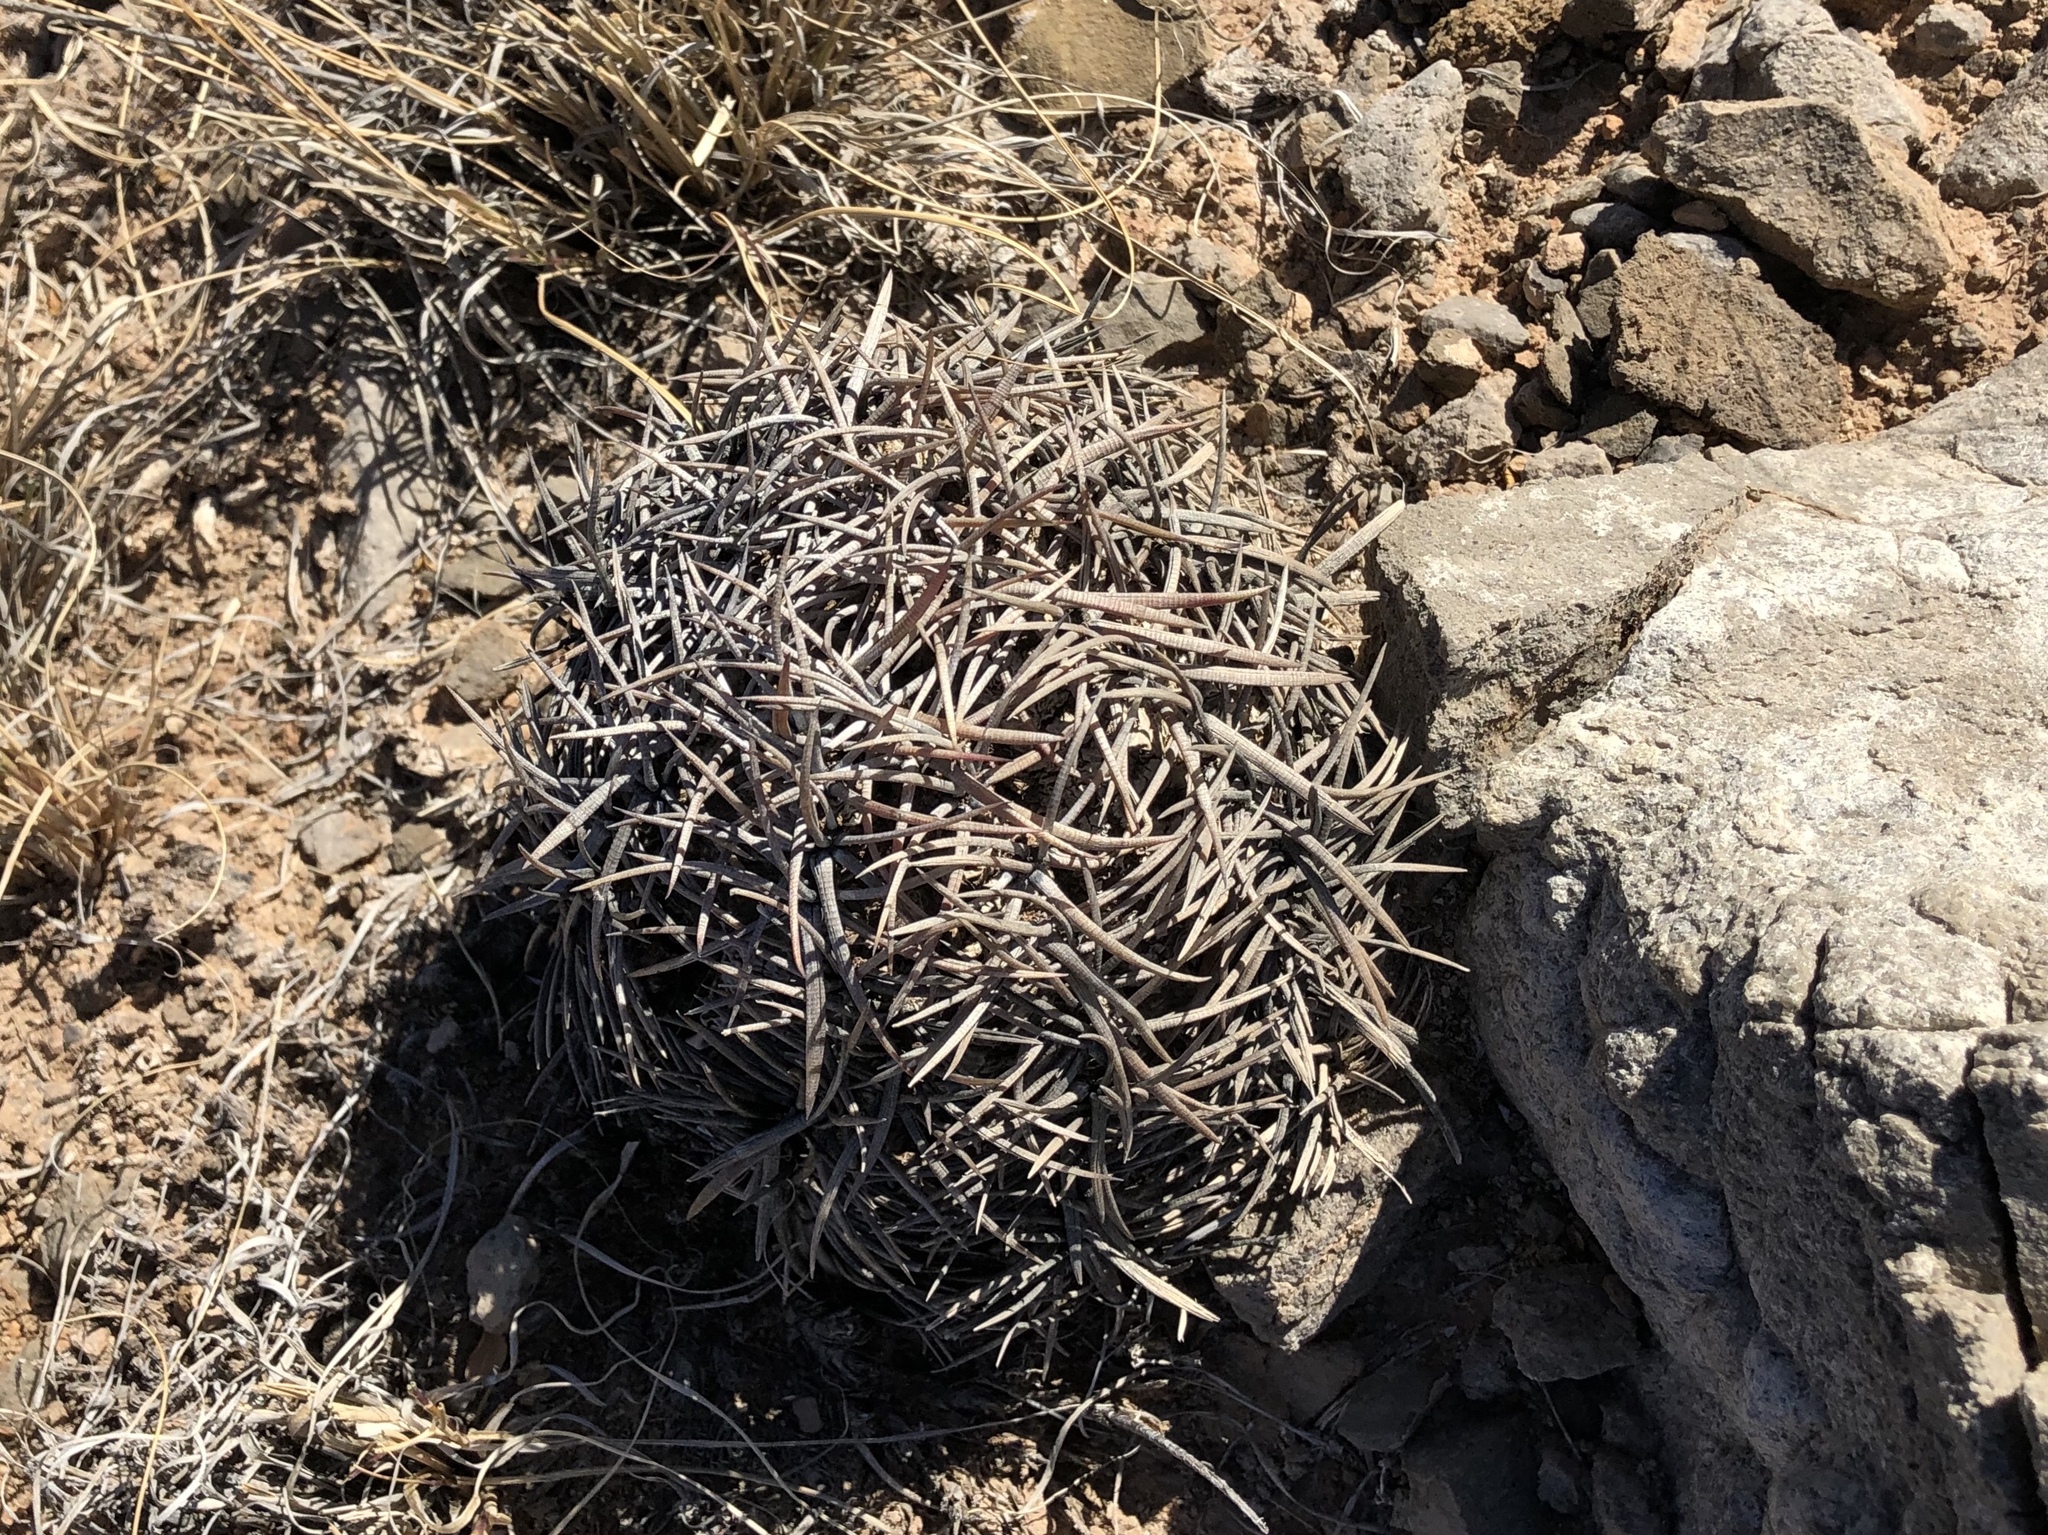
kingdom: Plantae
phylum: Tracheophyta
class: Magnoliopsida
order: Caryophyllales
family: Cactaceae
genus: Echinocactus
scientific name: Echinocactus horizonthalonius
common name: Devilshead
